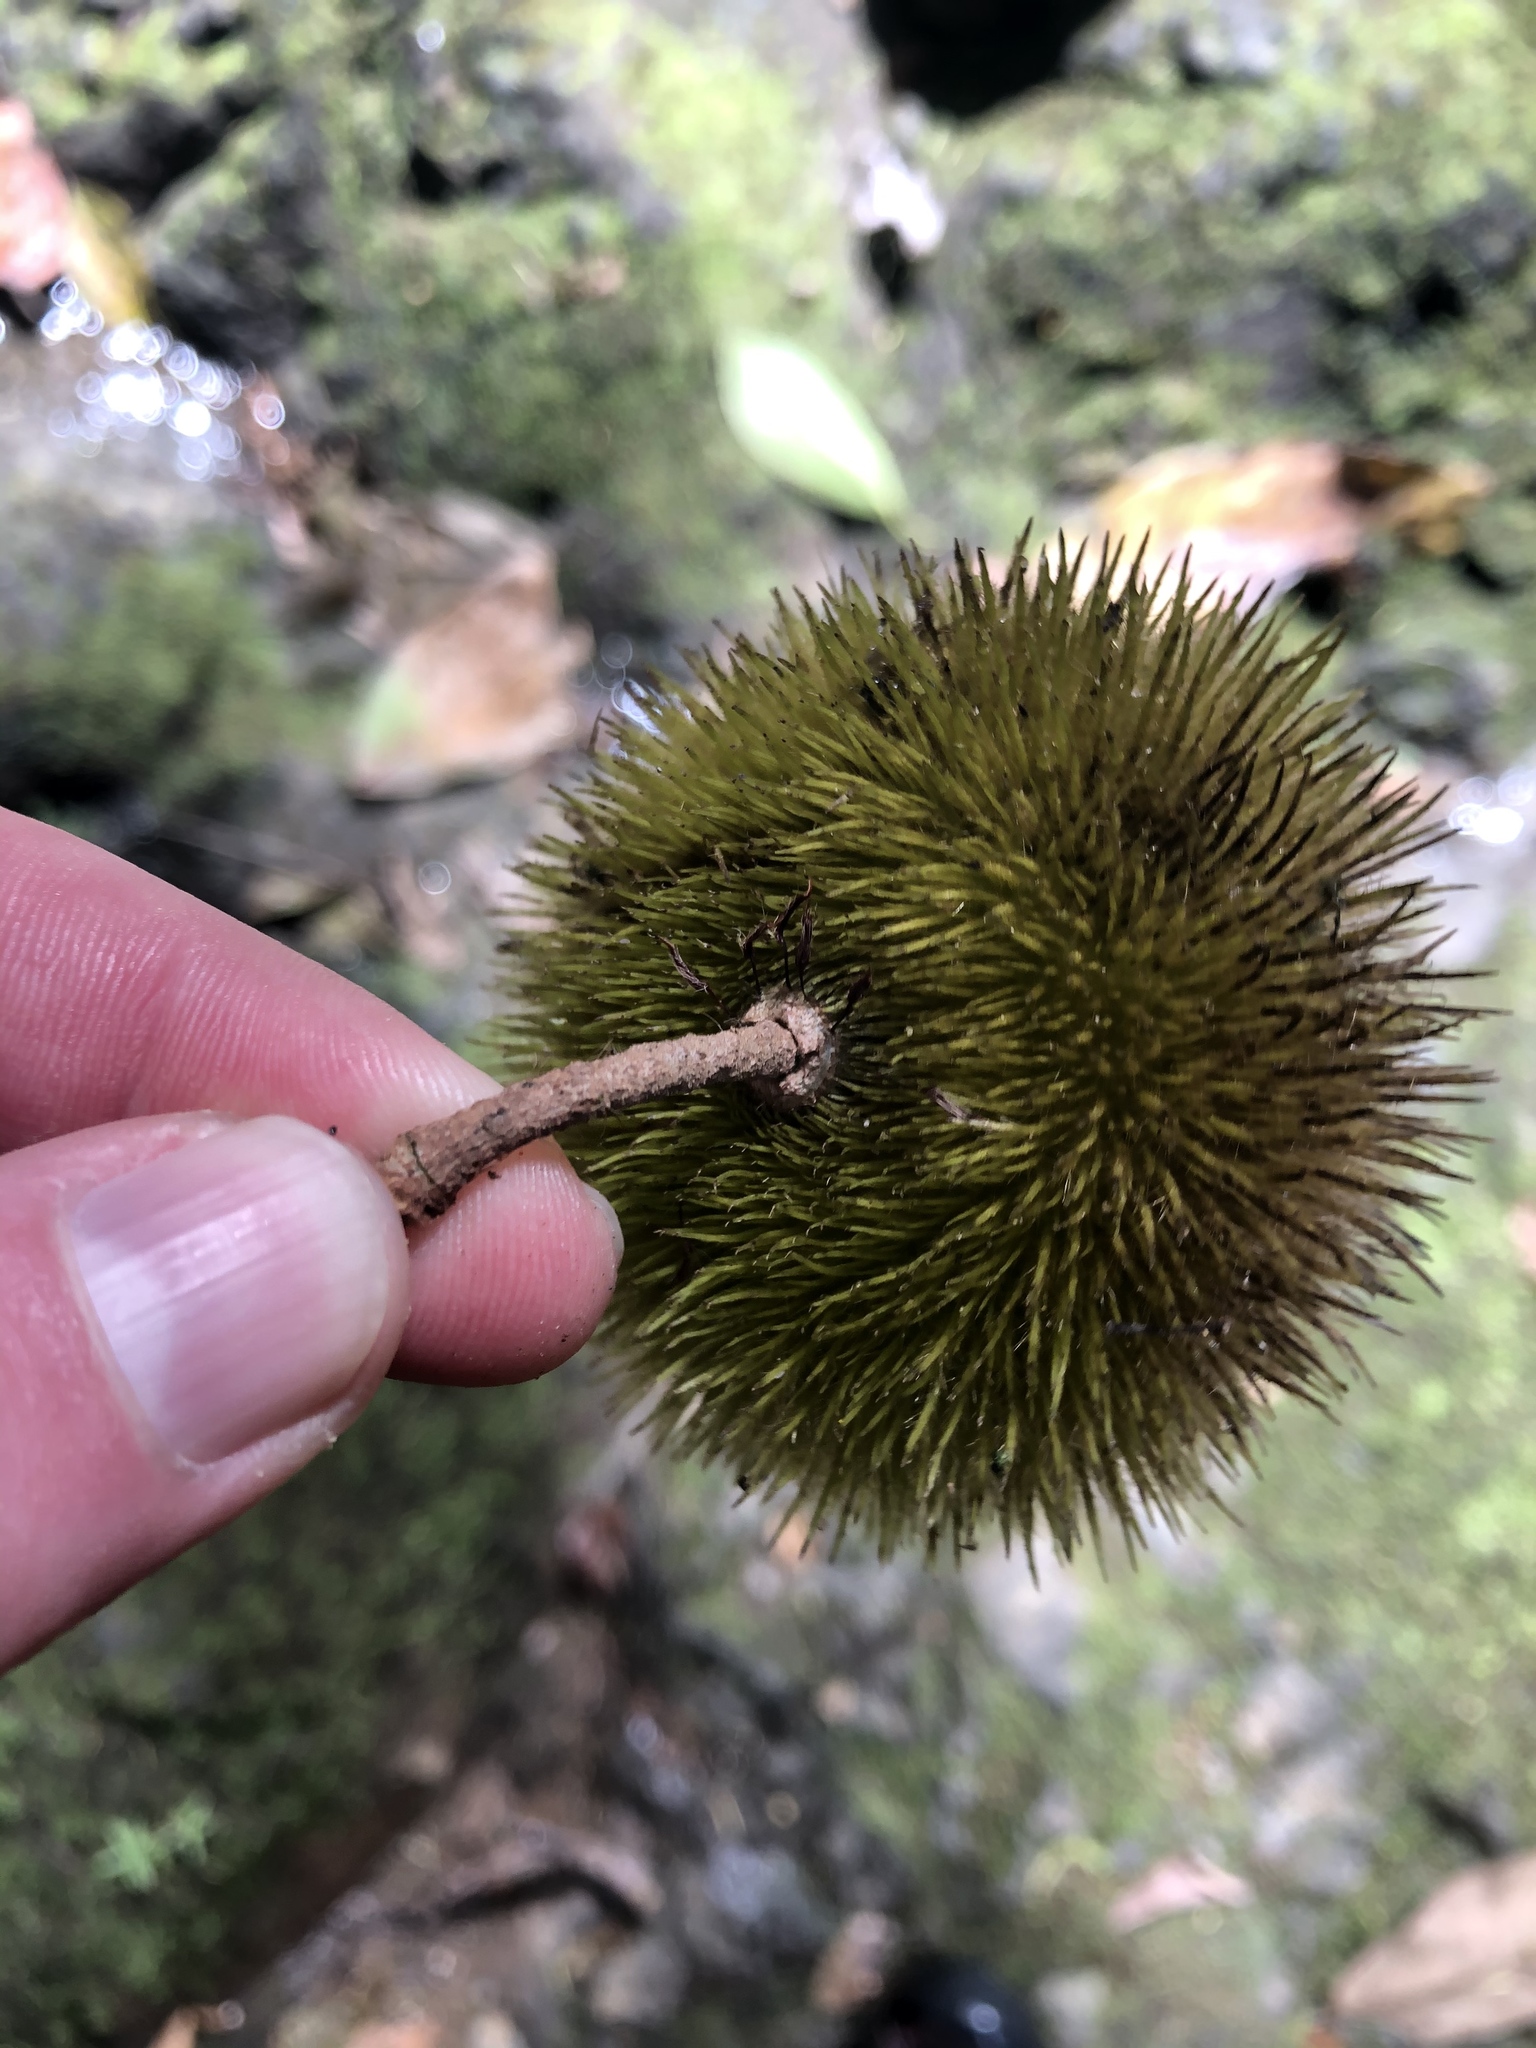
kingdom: Plantae
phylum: Tracheophyta
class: Magnoliopsida
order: Malvales
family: Malvaceae
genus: Apeiba
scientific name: Apeiba tibourbou
